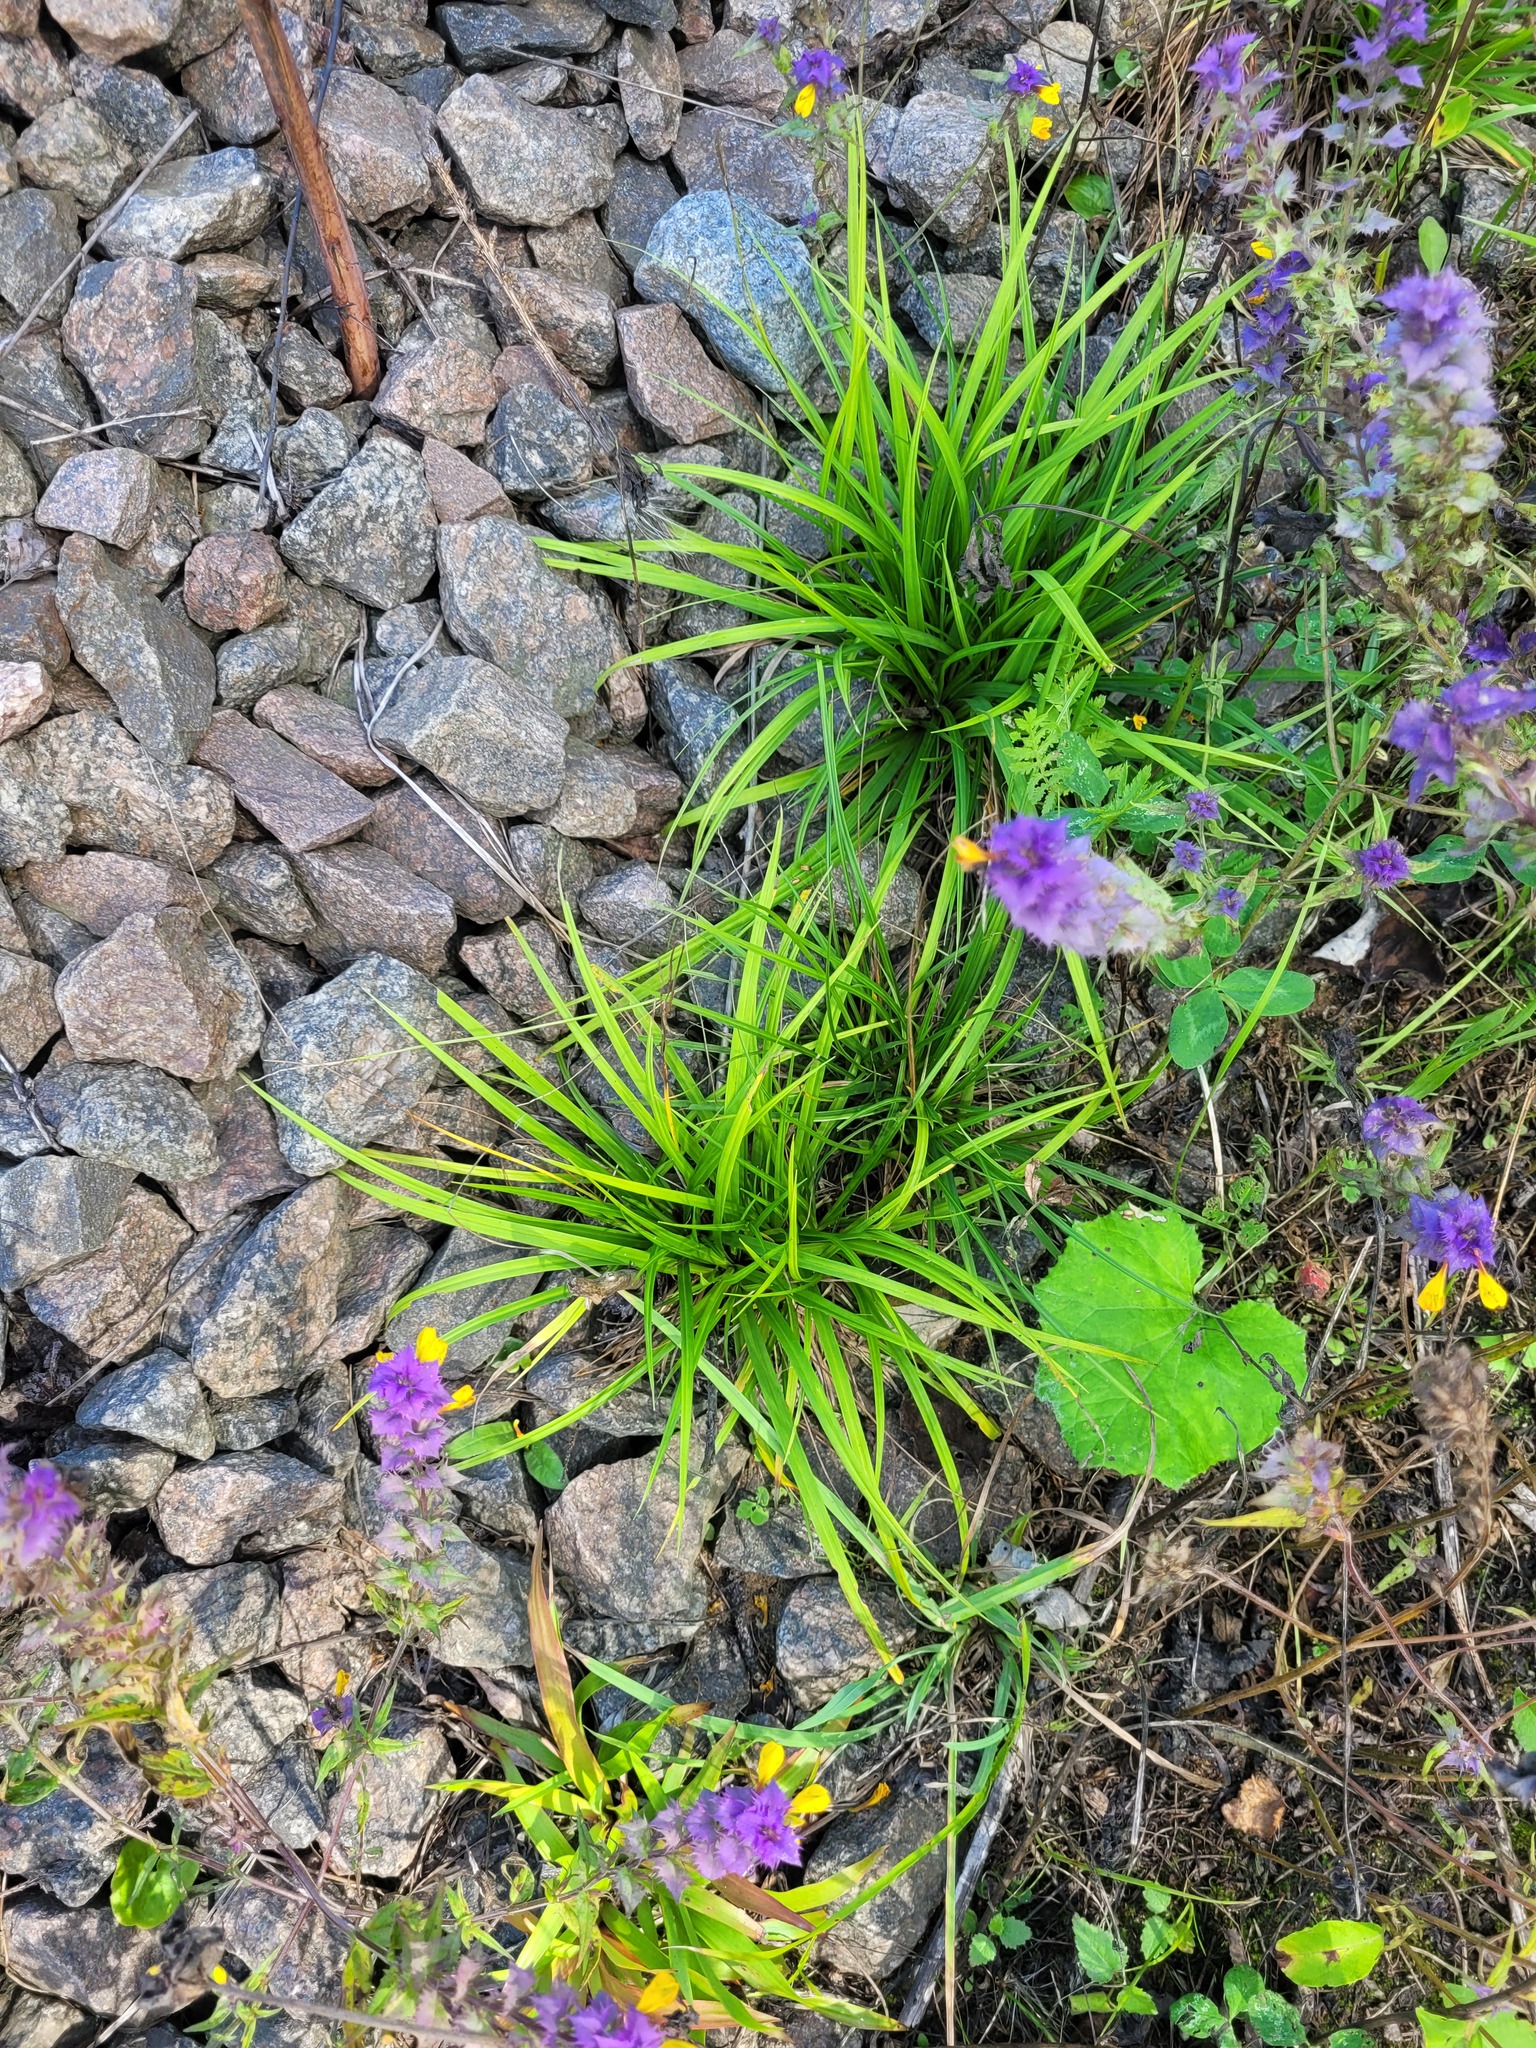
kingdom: Plantae
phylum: Tracheophyta
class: Liliopsida
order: Poales
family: Cyperaceae
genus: Carex
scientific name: Carex digitata
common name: Fingered sedge
